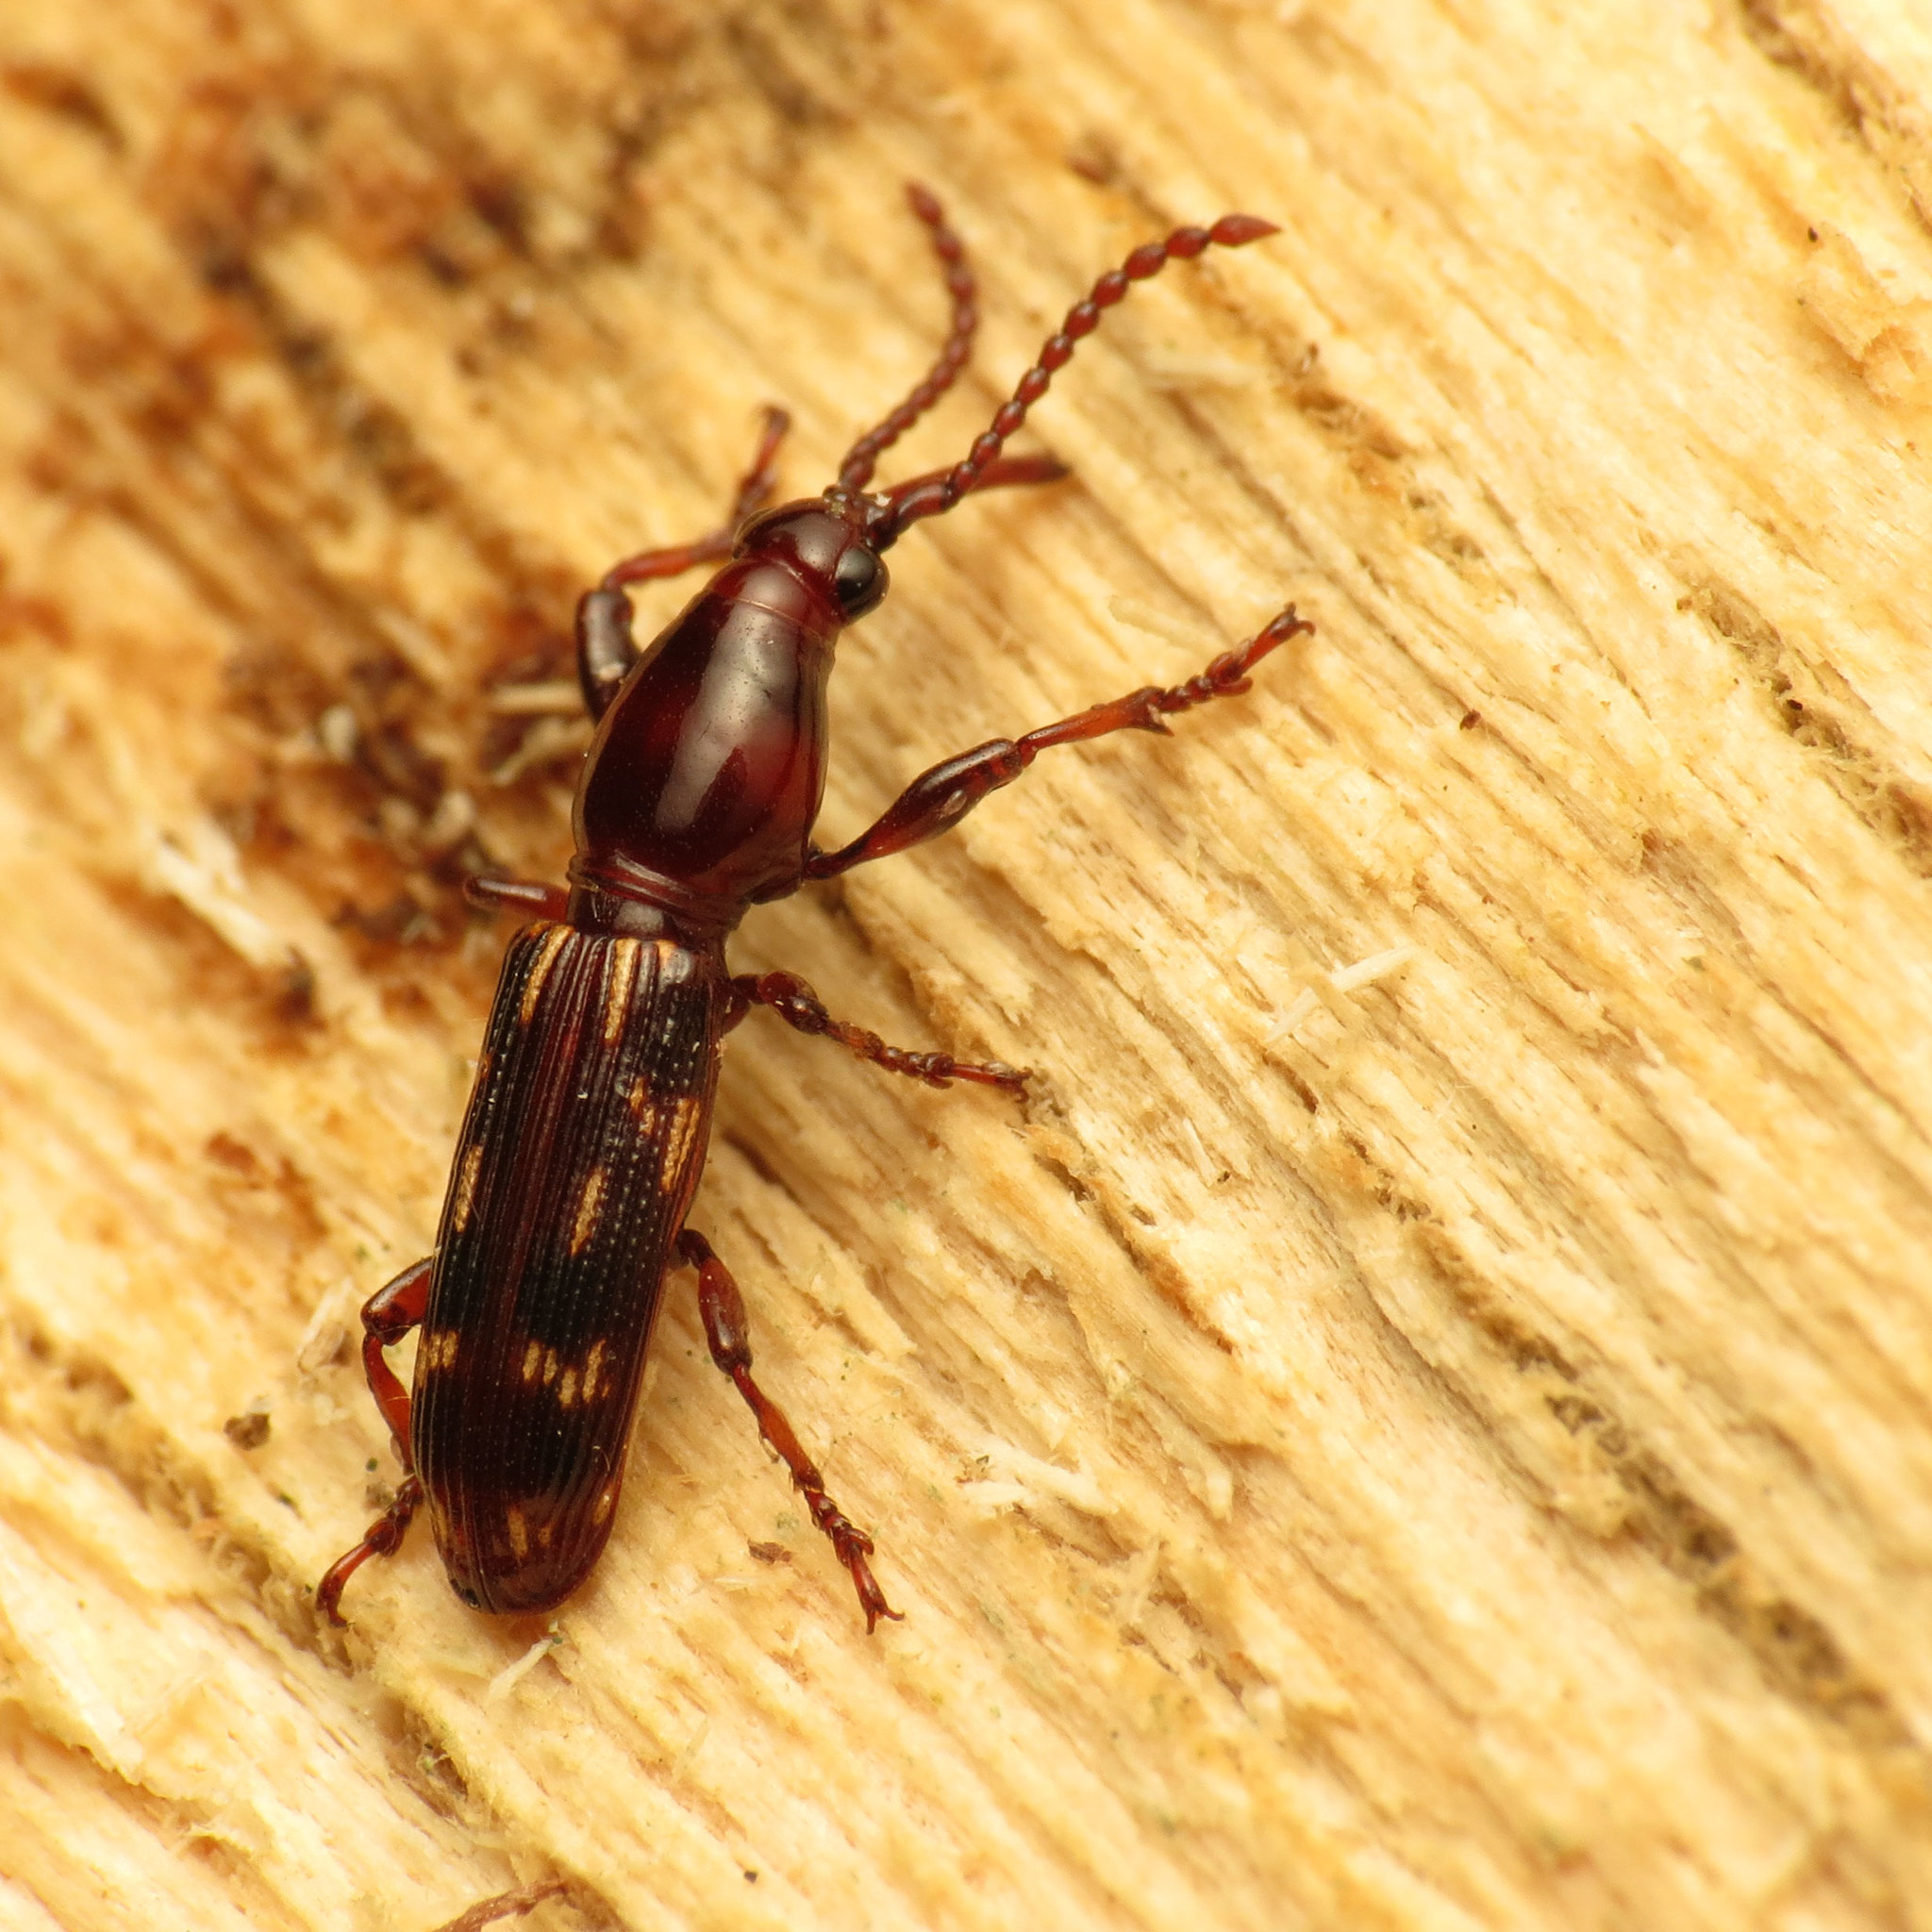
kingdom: Animalia
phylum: Arthropoda
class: Insecta
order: Coleoptera
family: Brentidae
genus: Arrenodes
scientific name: Arrenodes minutus
